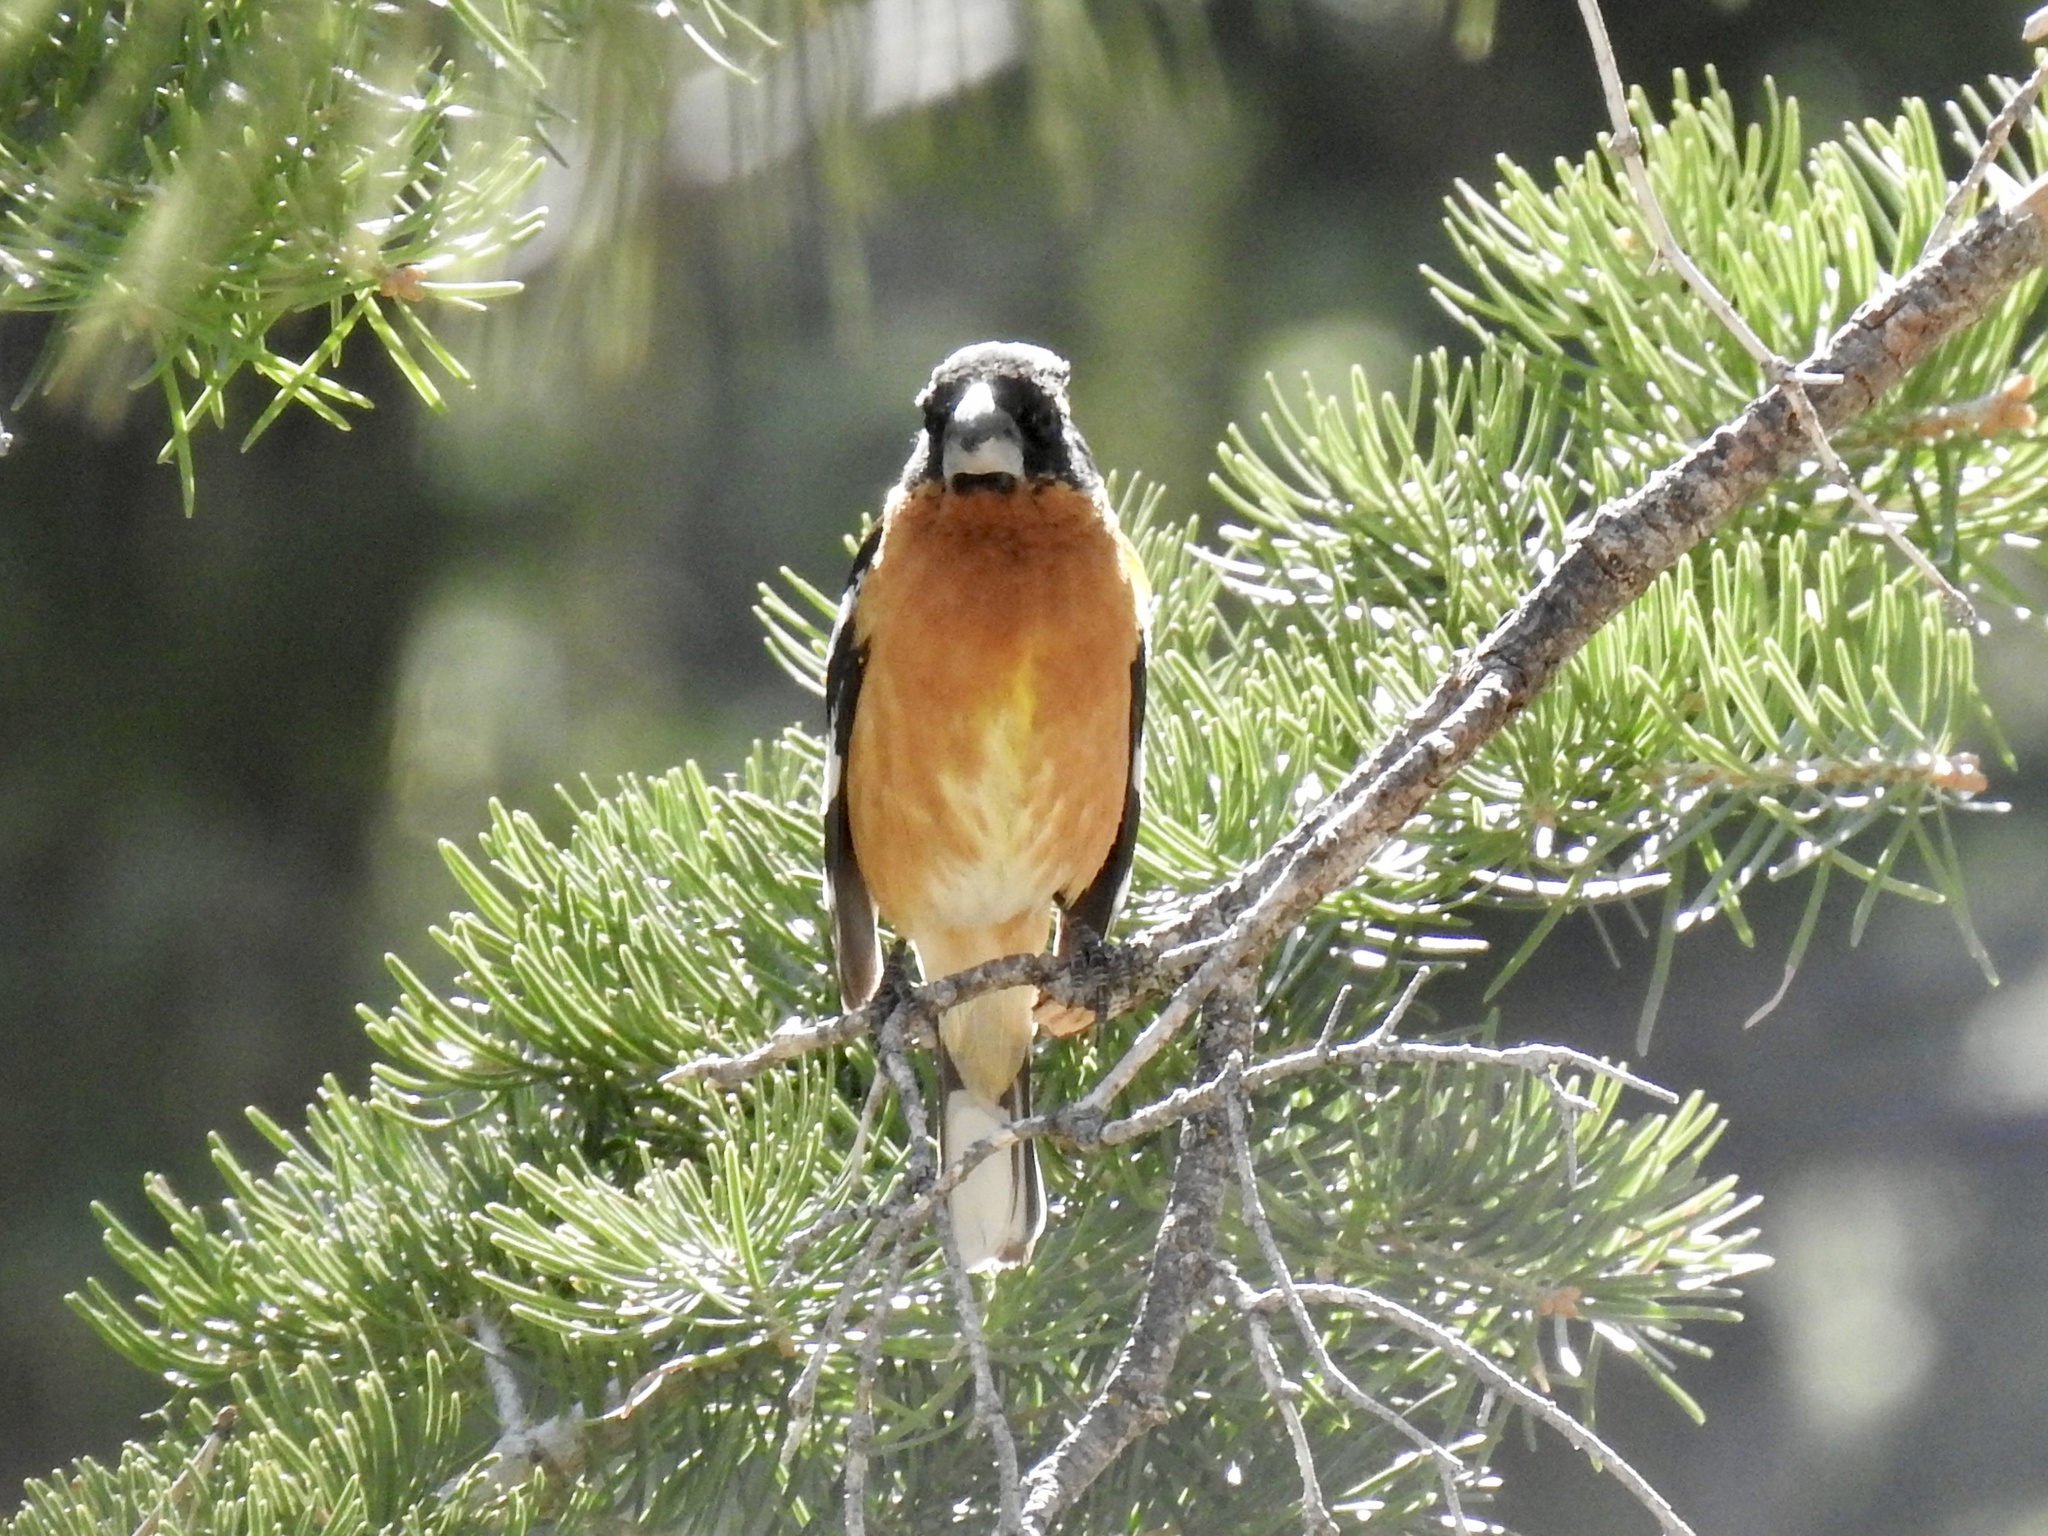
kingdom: Animalia
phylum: Chordata
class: Aves
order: Passeriformes
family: Cardinalidae
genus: Pheucticus
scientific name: Pheucticus melanocephalus
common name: Black-headed grosbeak
